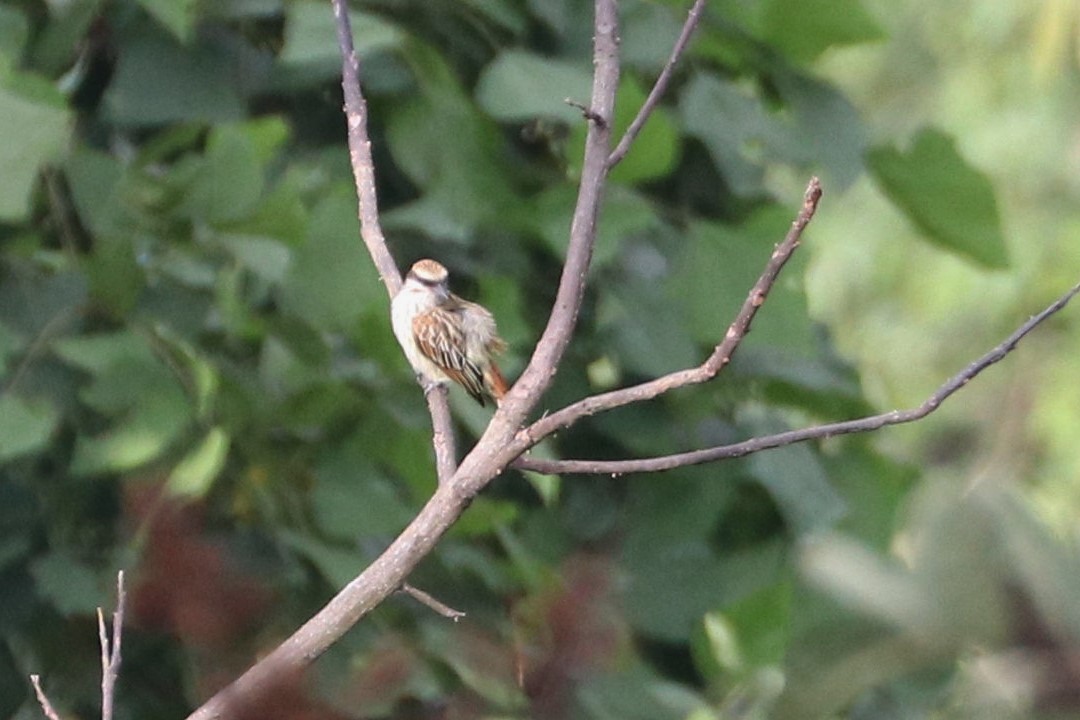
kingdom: Animalia
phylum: Chordata
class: Aves
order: Passeriformes
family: Tyrannidae
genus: Myiodynastes
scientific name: Myiodynastes maculatus
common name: Streaked flycatcher
